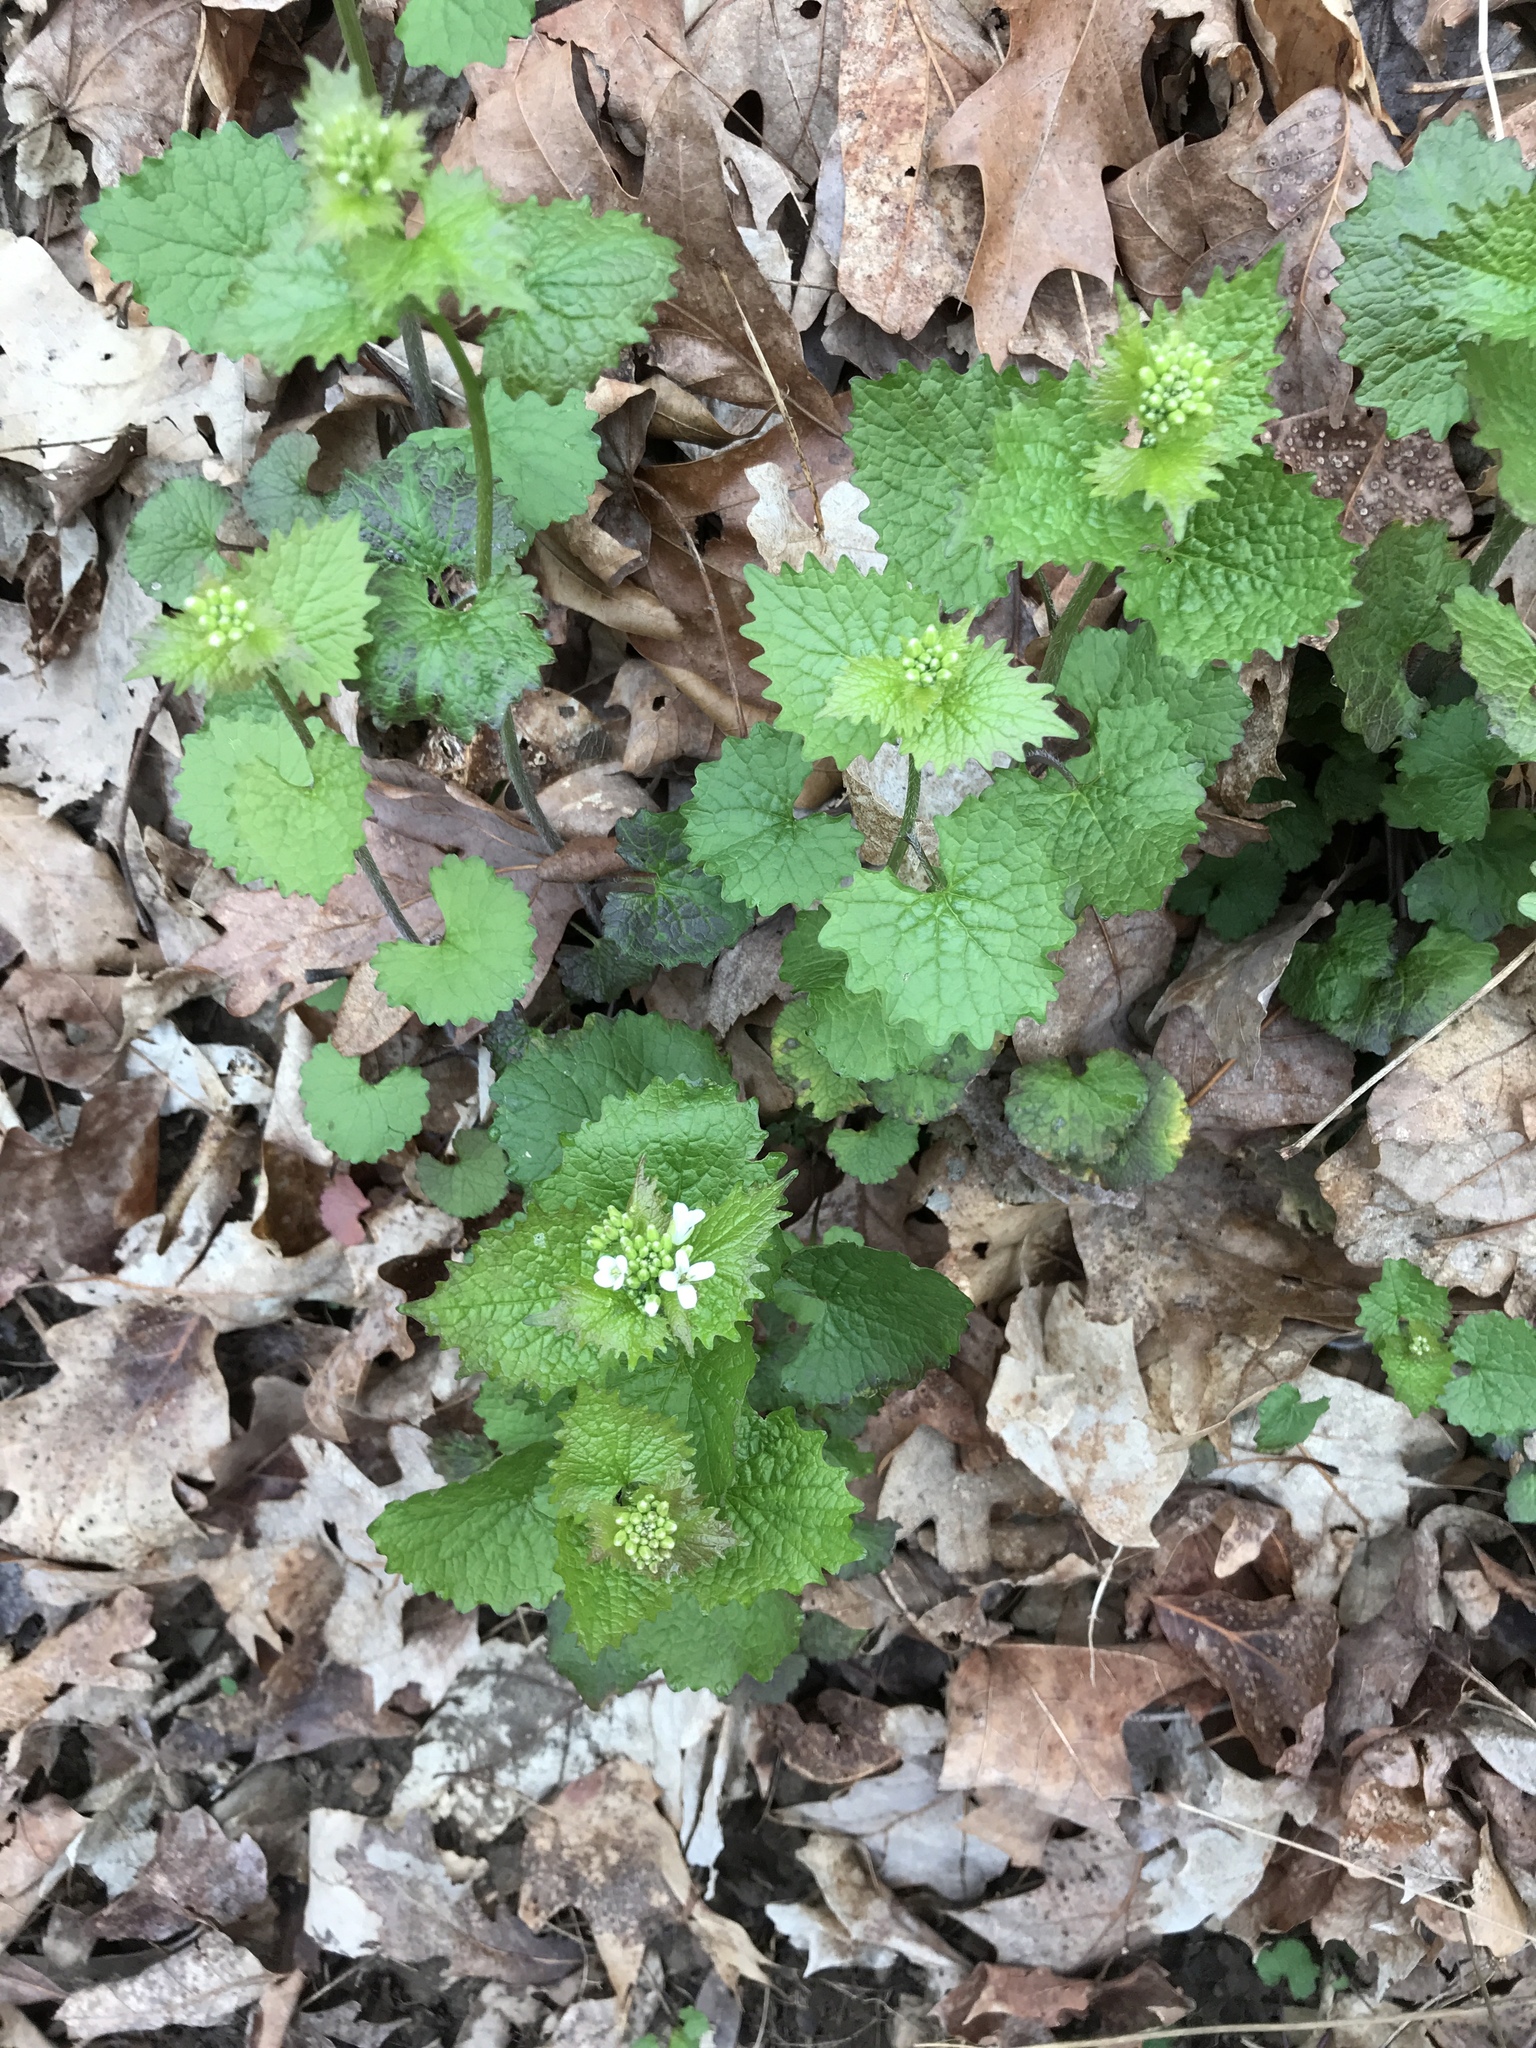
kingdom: Plantae
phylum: Tracheophyta
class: Magnoliopsida
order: Brassicales
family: Brassicaceae
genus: Alliaria
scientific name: Alliaria petiolata
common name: Garlic mustard
